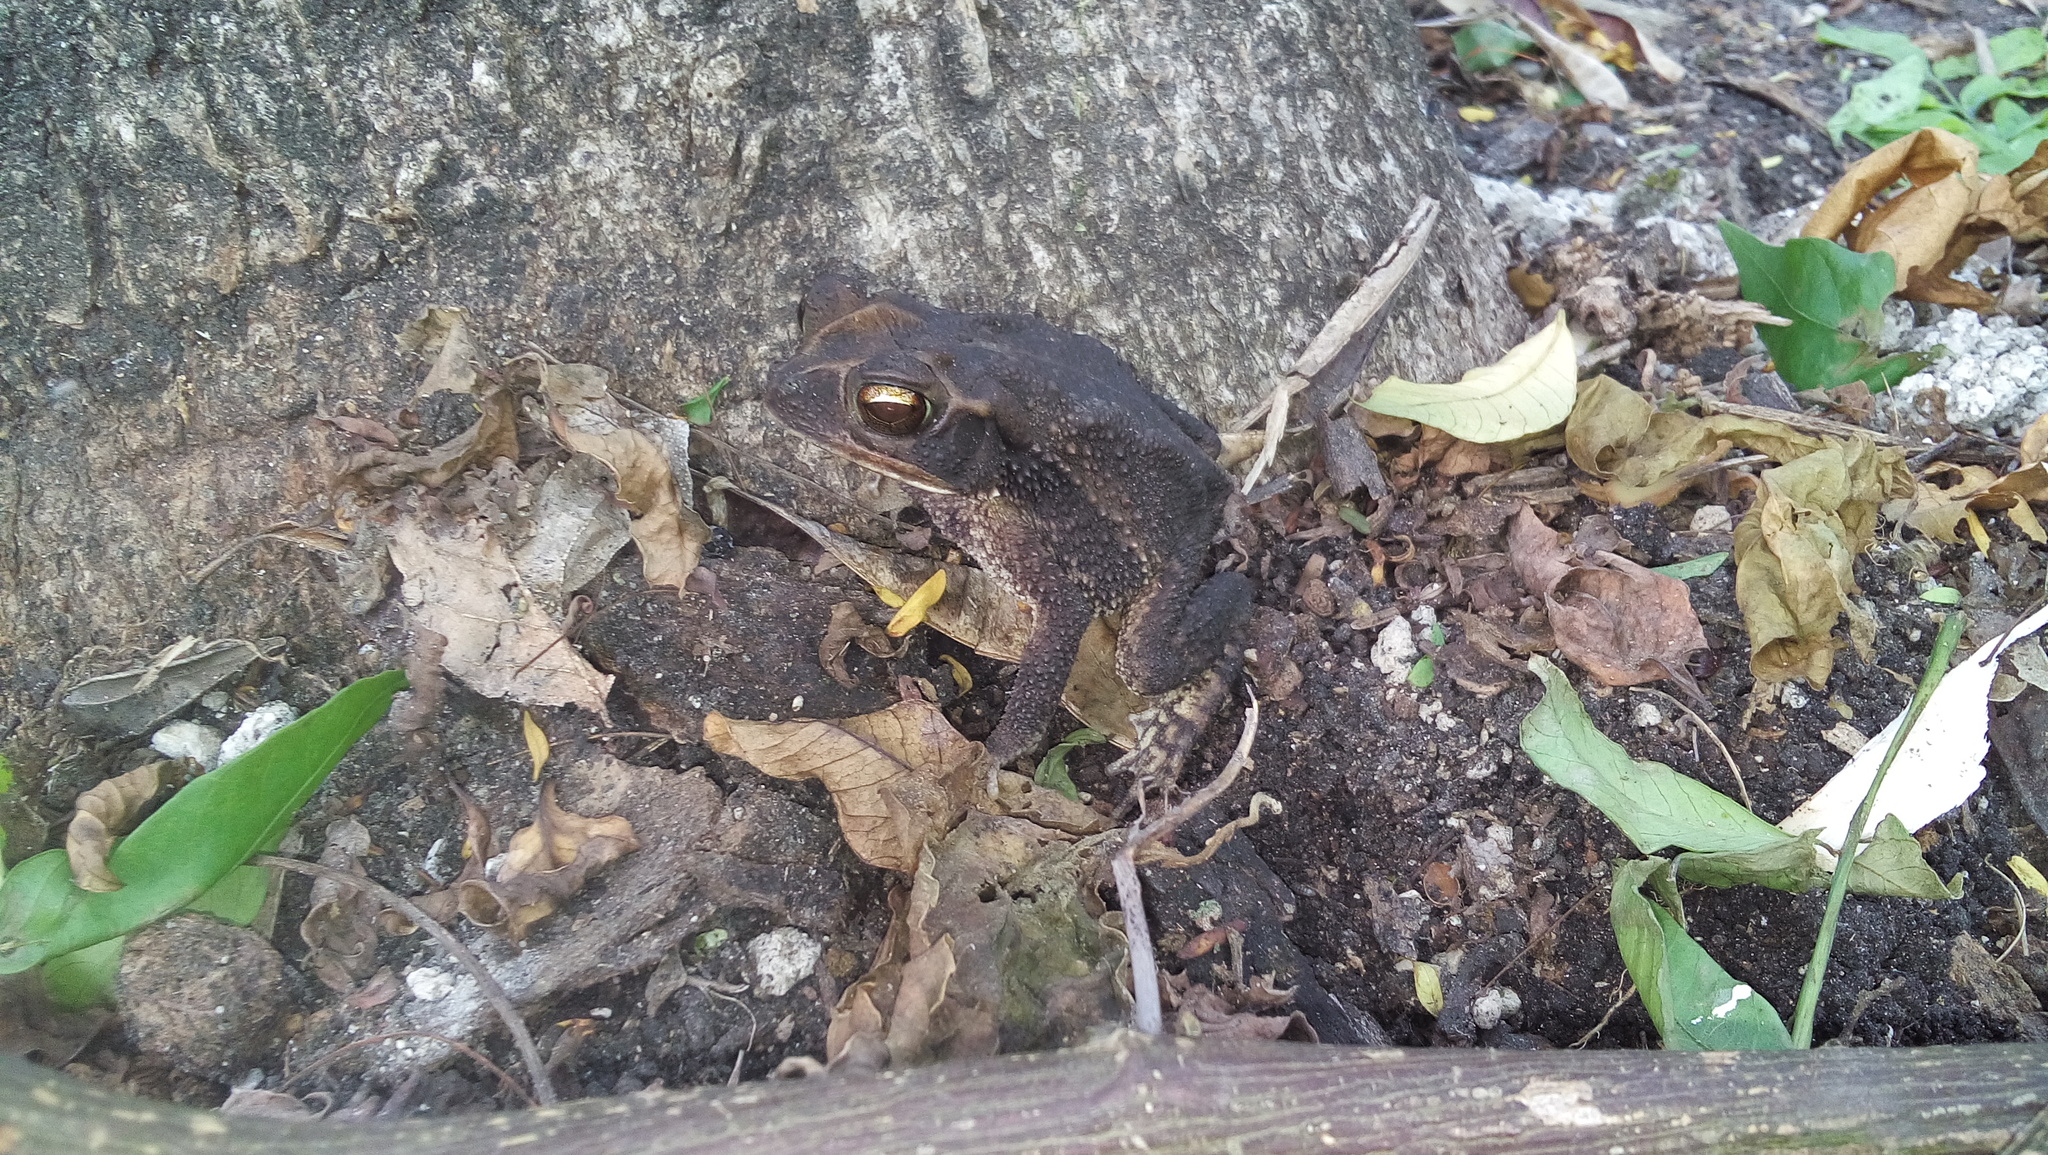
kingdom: Animalia
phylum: Chordata
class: Amphibia
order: Anura
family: Bufonidae
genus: Incilius
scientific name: Incilius valliceps
